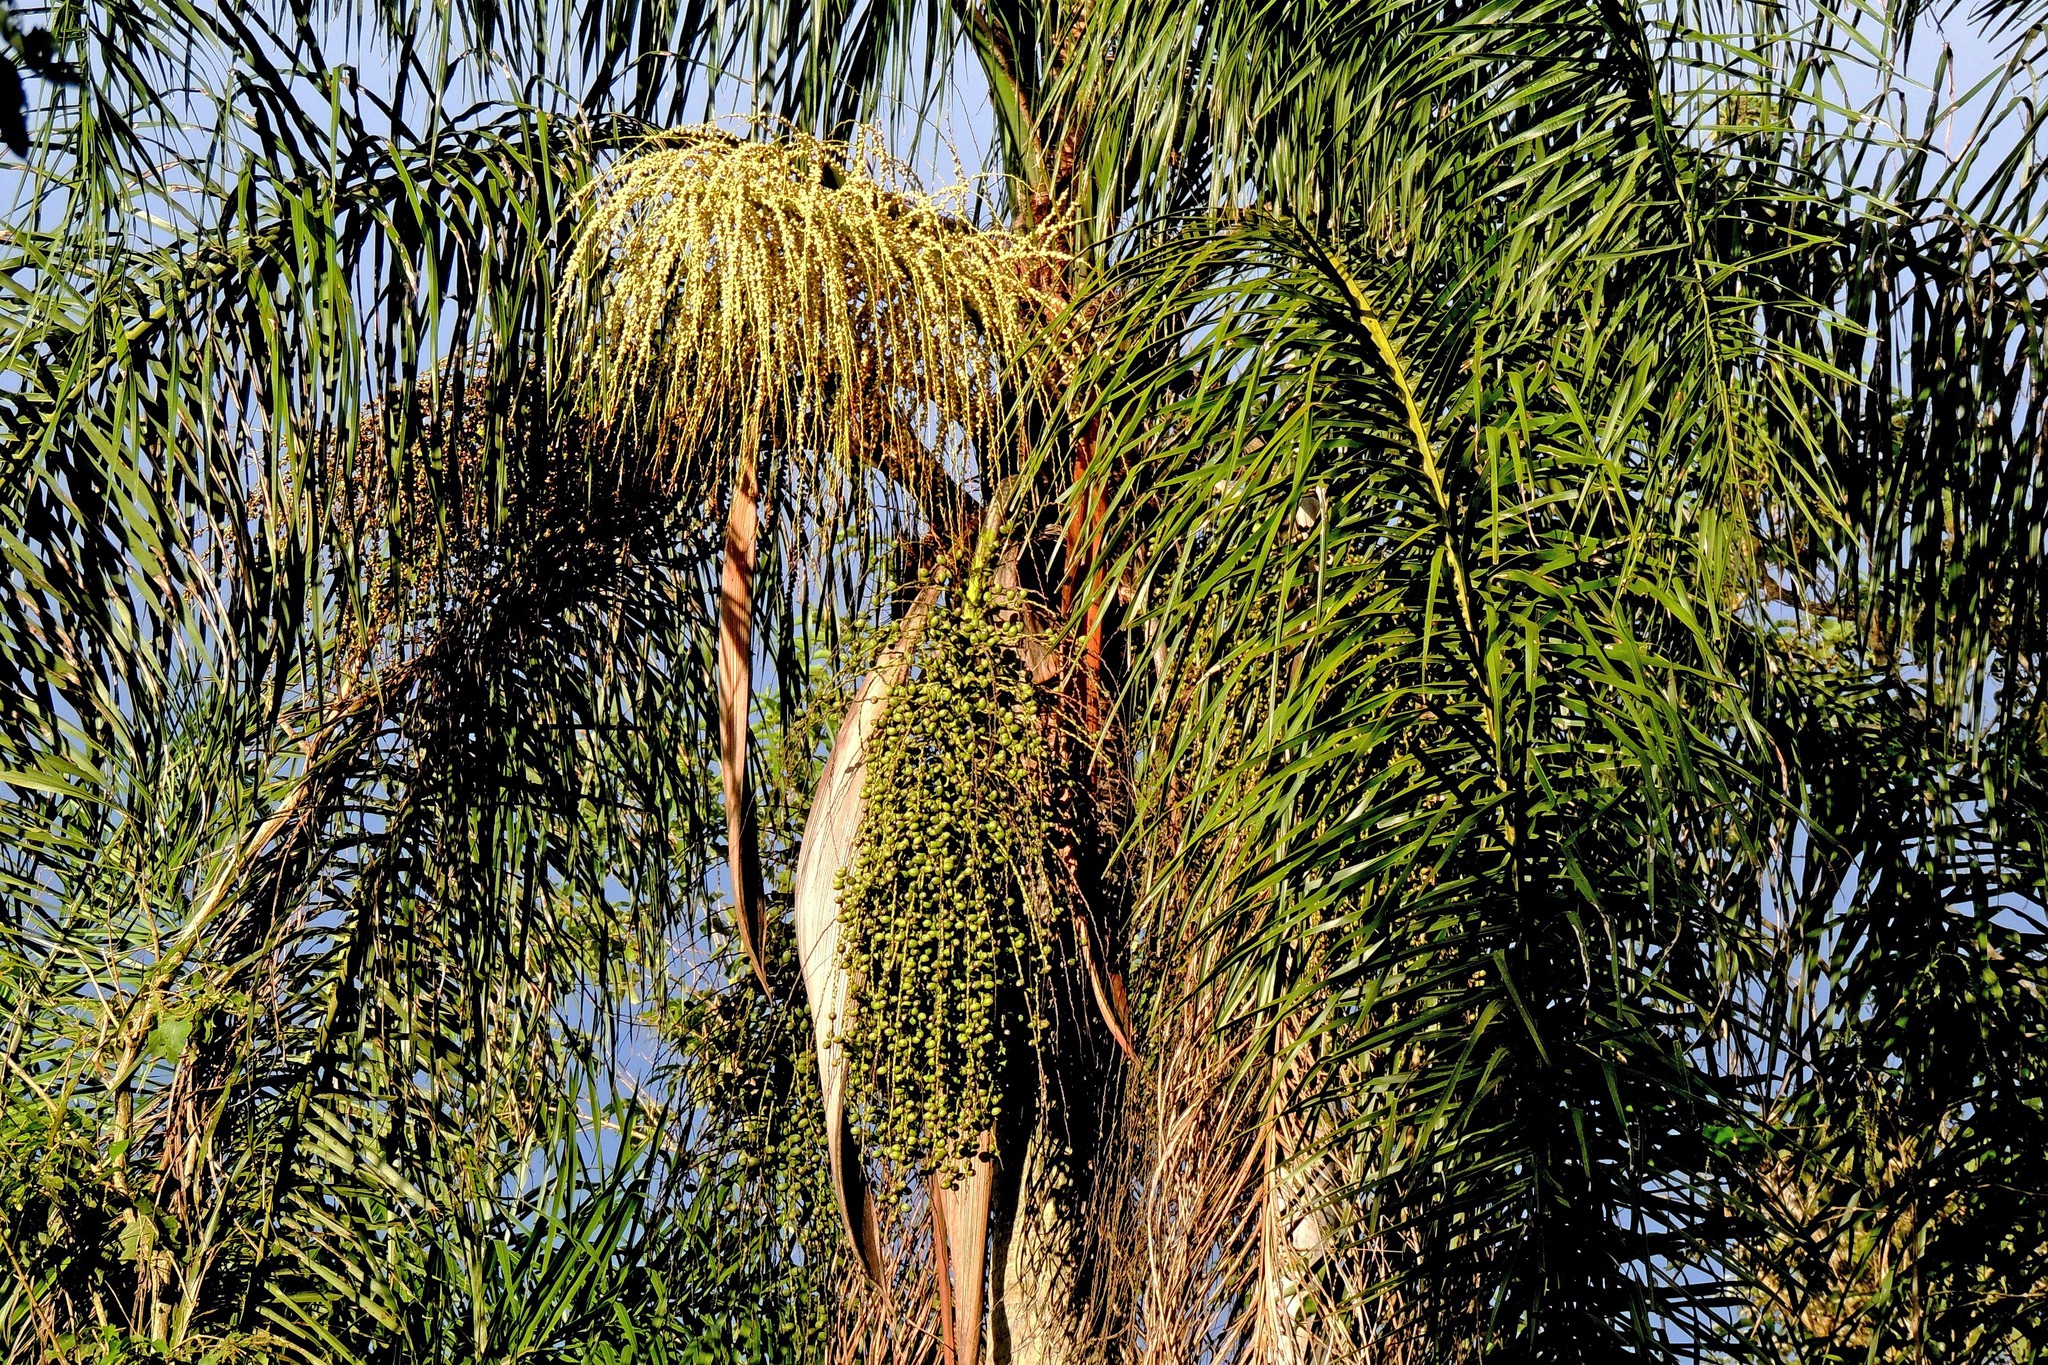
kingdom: Plantae
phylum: Tracheophyta
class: Liliopsida
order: Arecales
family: Arecaceae
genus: Syagrus
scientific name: Syagrus romanzoffiana
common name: Queen palm
